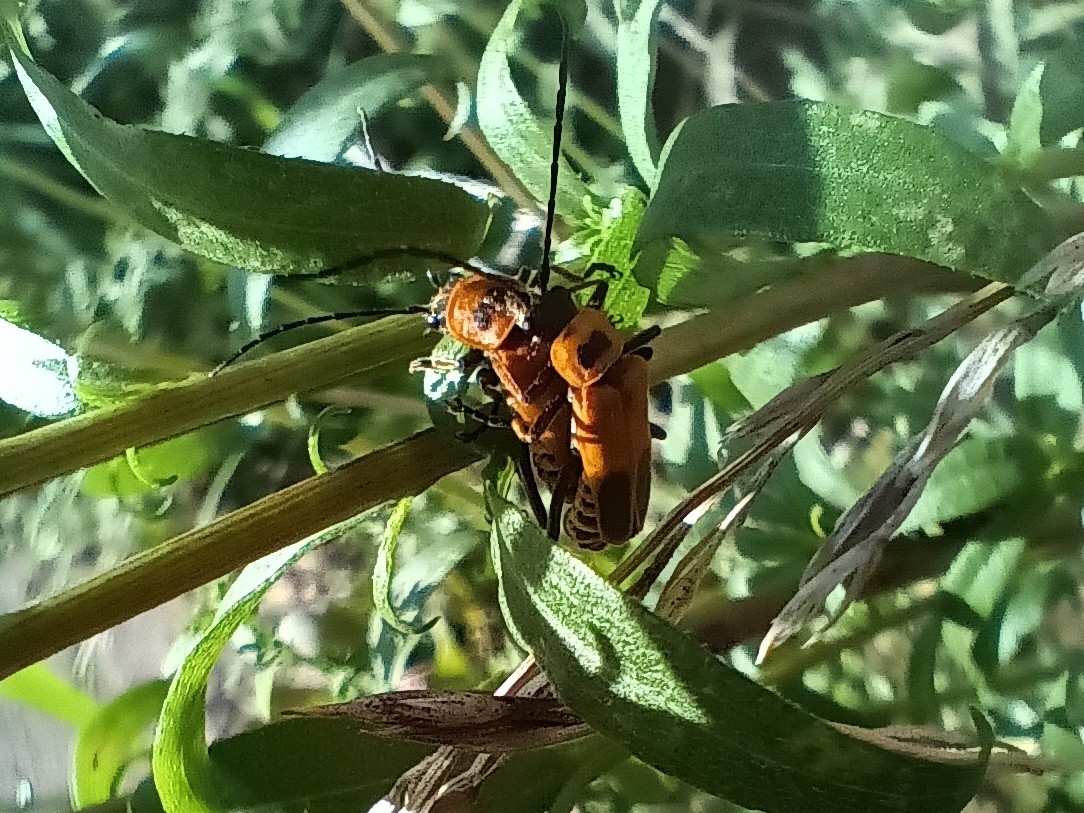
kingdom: Animalia
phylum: Arthropoda
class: Insecta
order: Coleoptera
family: Cantharidae
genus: Chauliognathus
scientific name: Chauliognathus pensylvanicus
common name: Goldenrod soldier beetle
